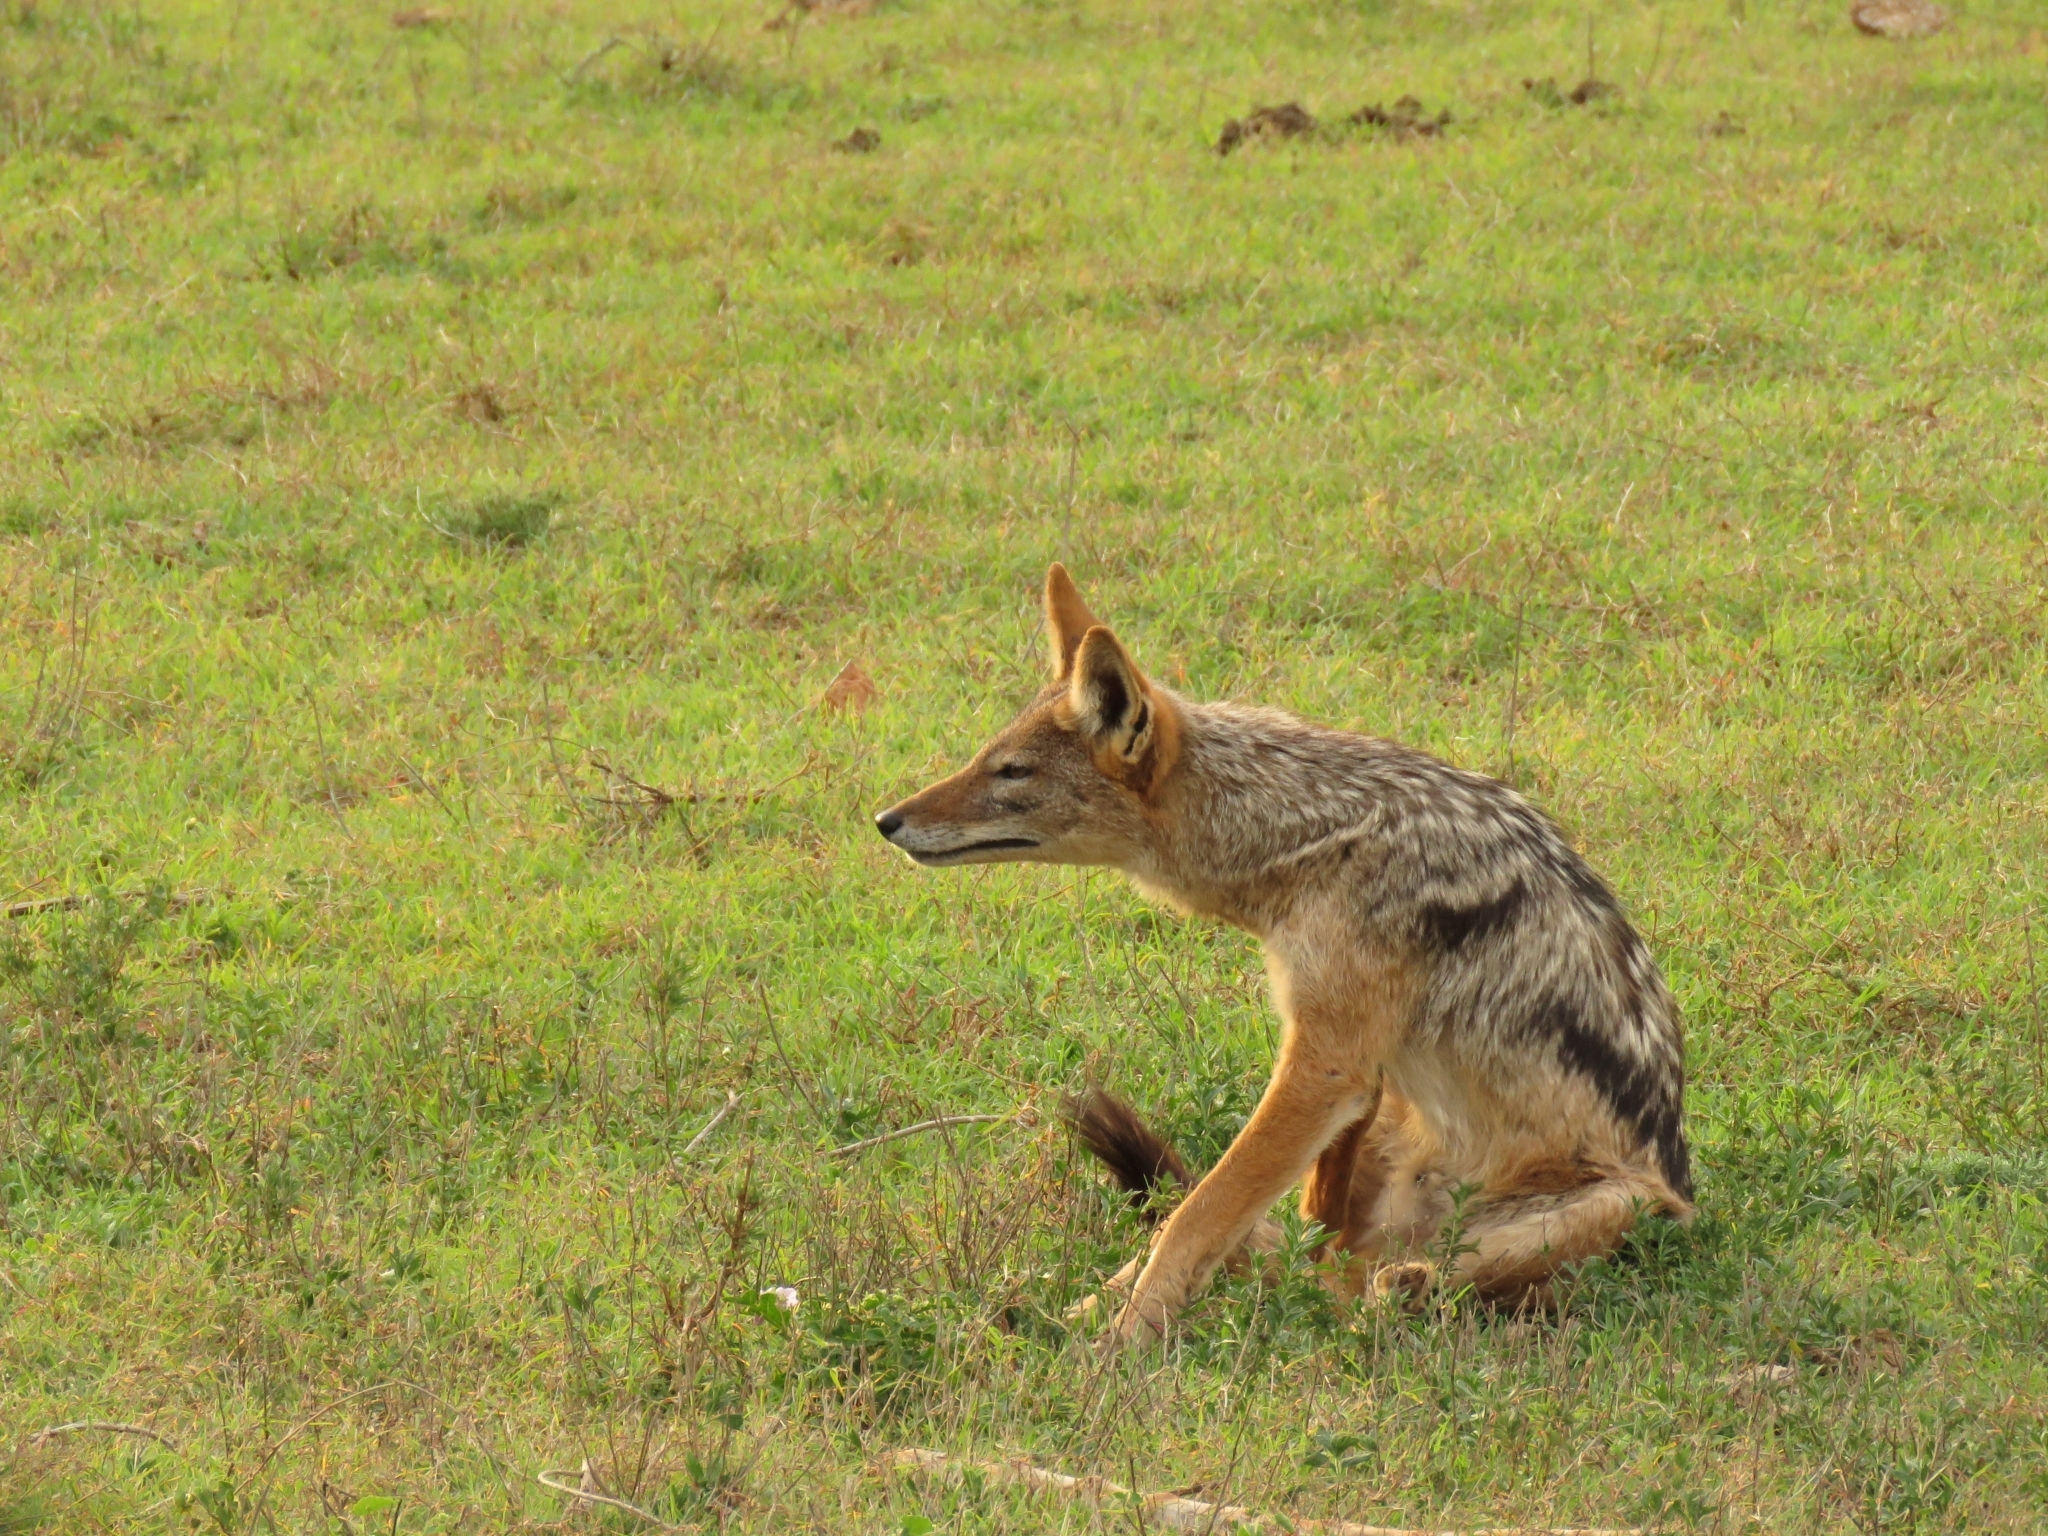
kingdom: Animalia
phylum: Chordata
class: Mammalia
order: Carnivora
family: Canidae
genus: Lupulella
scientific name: Lupulella
